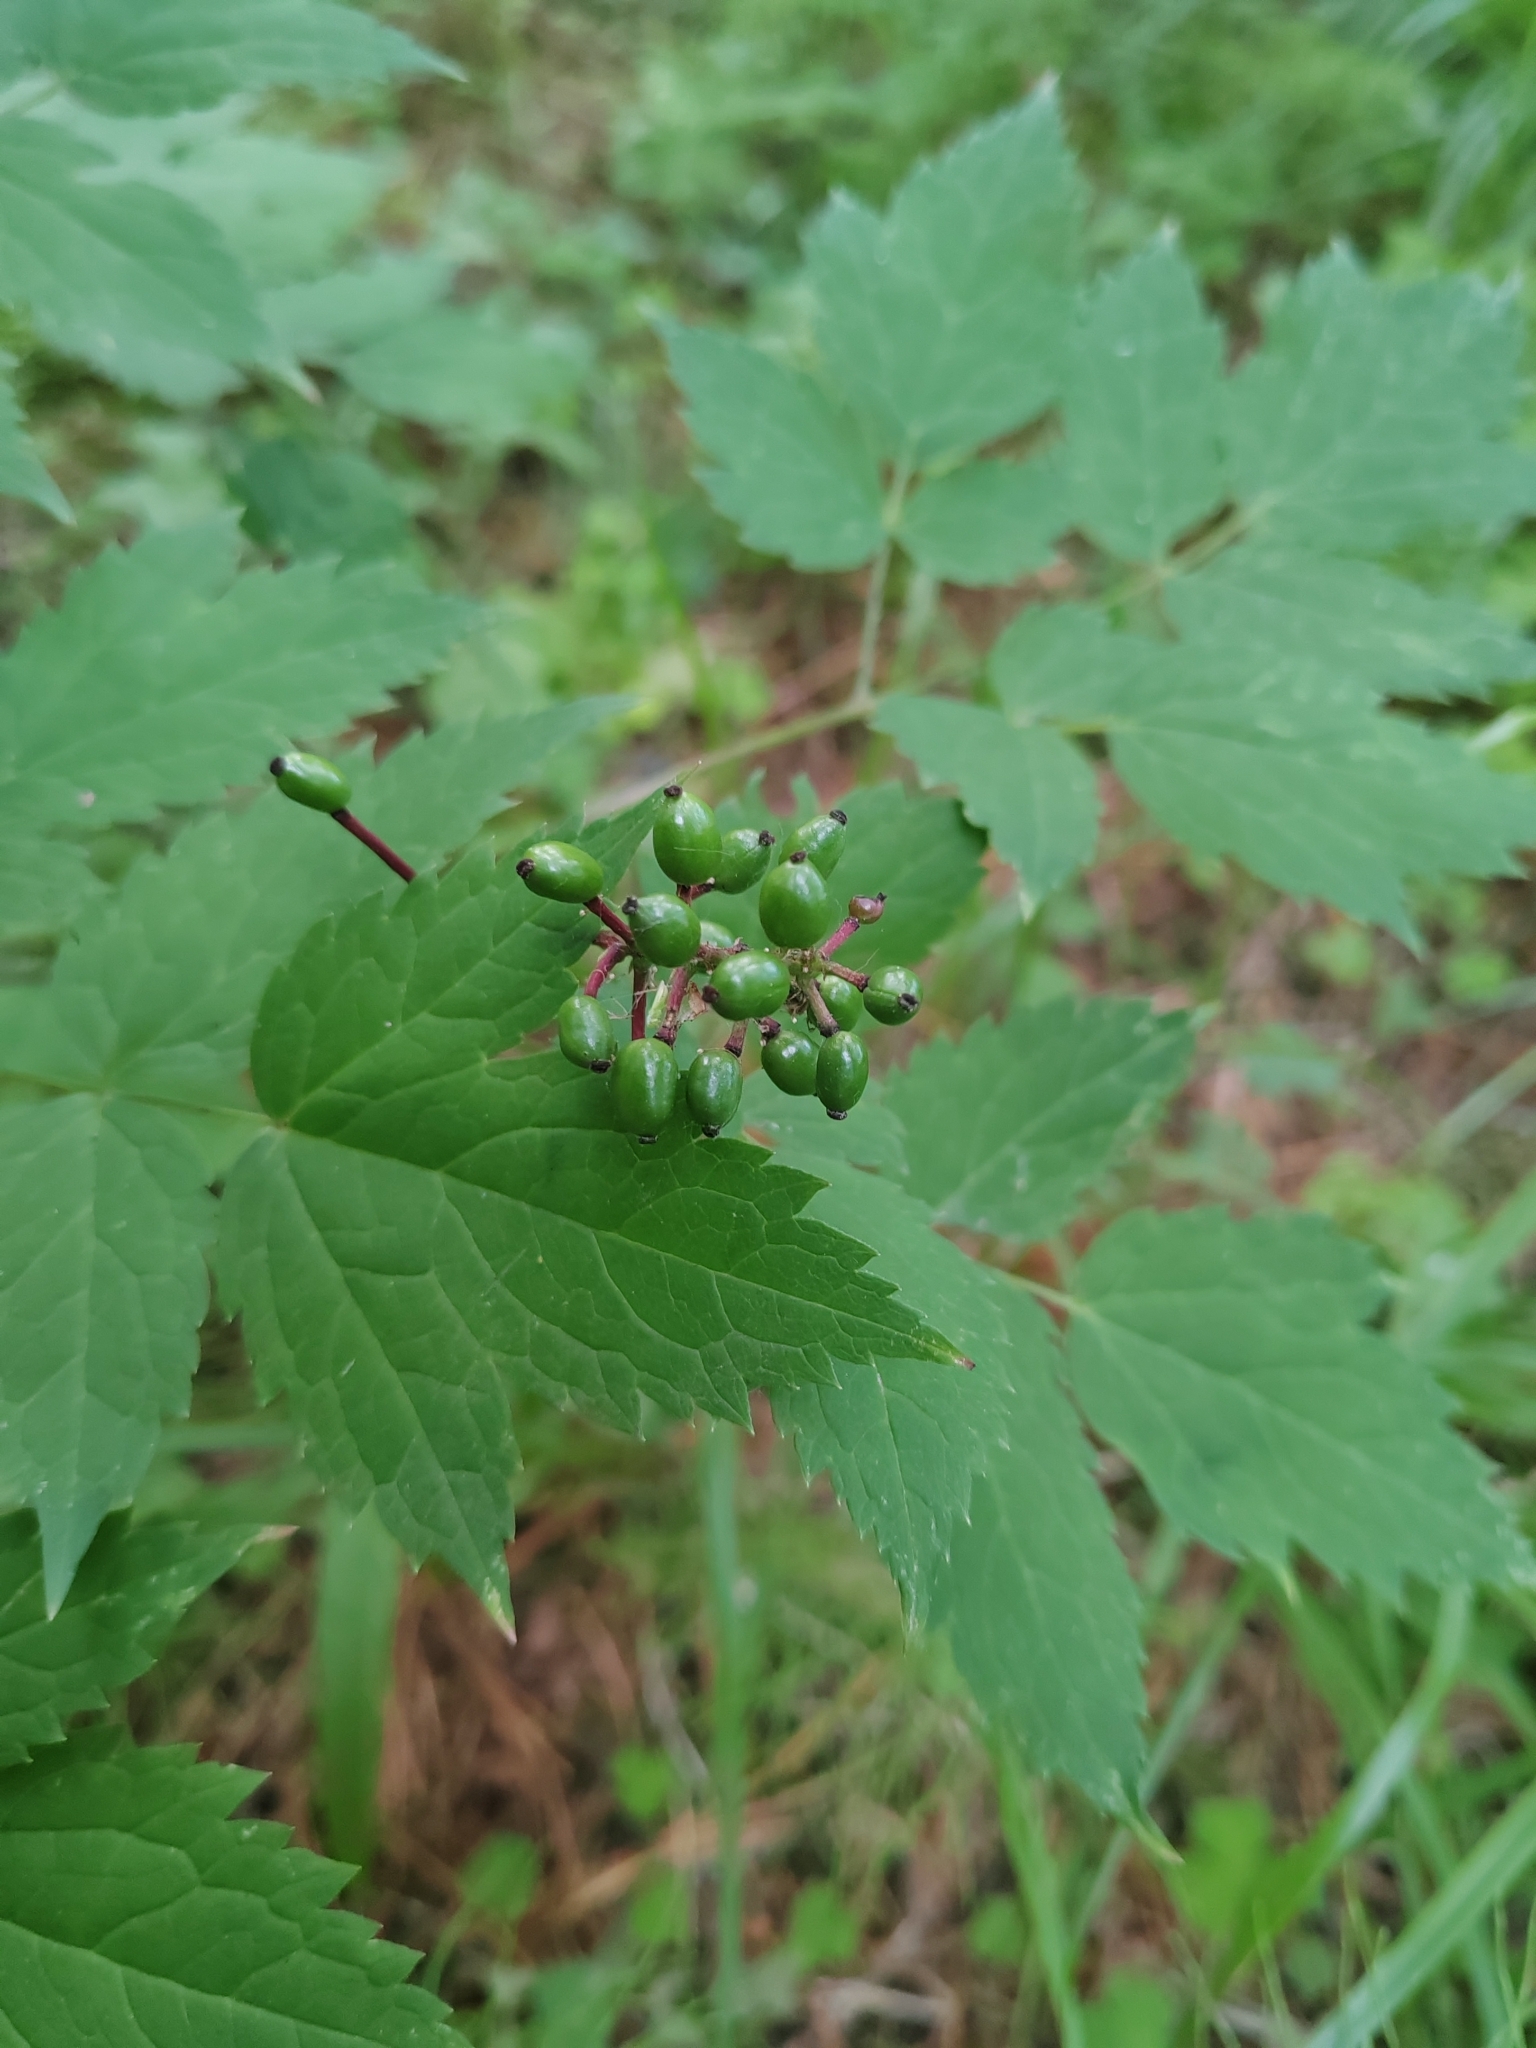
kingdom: Plantae
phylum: Tracheophyta
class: Magnoliopsida
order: Ranunculales
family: Ranunculaceae
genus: Actaea
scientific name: Actaea erythrocarpa
